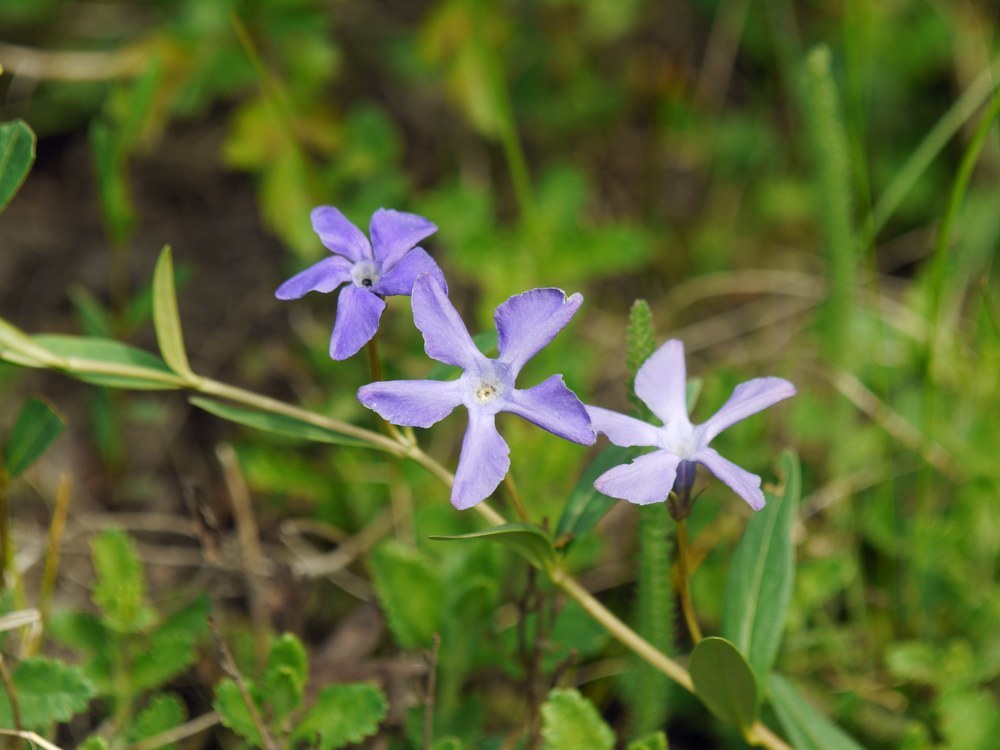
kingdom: Plantae
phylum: Tracheophyta
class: Magnoliopsida
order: Gentianales
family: Apocynaceae
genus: Vinca
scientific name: Vinca herbacea
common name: Herbaceous periwinkle
